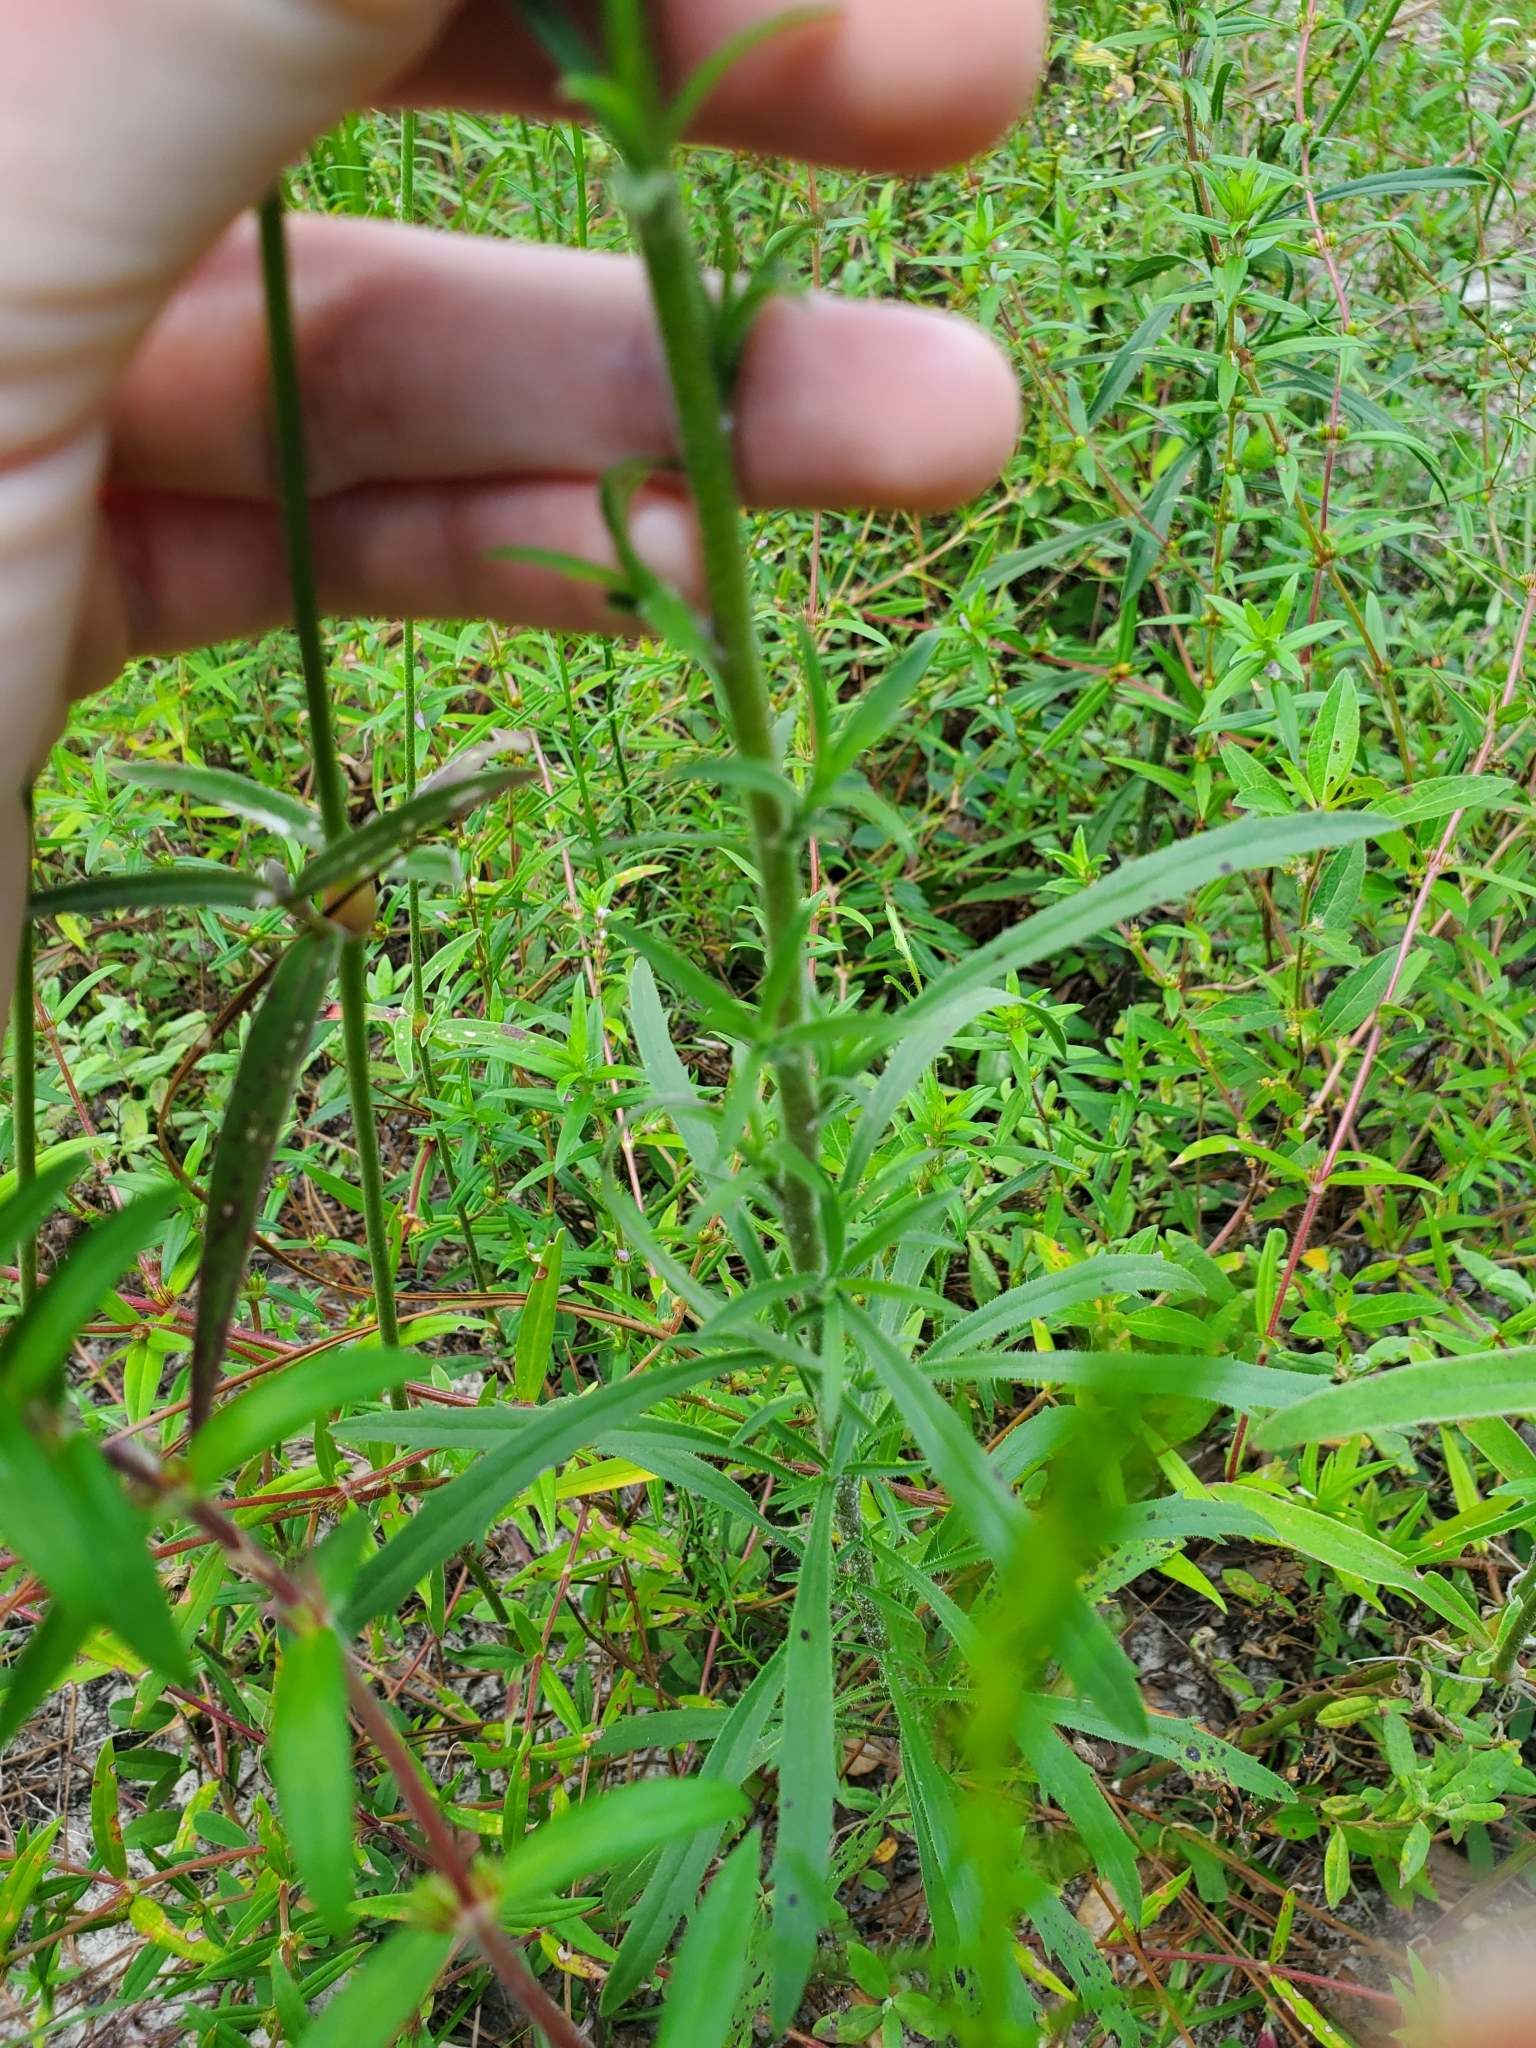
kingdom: Plantae
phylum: Tracheophyta
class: Magnoliopsida
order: Caryophyllales
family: Amaranthaceae
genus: Froelichia
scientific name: Froelichia floridana
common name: Florida snake-cotton
